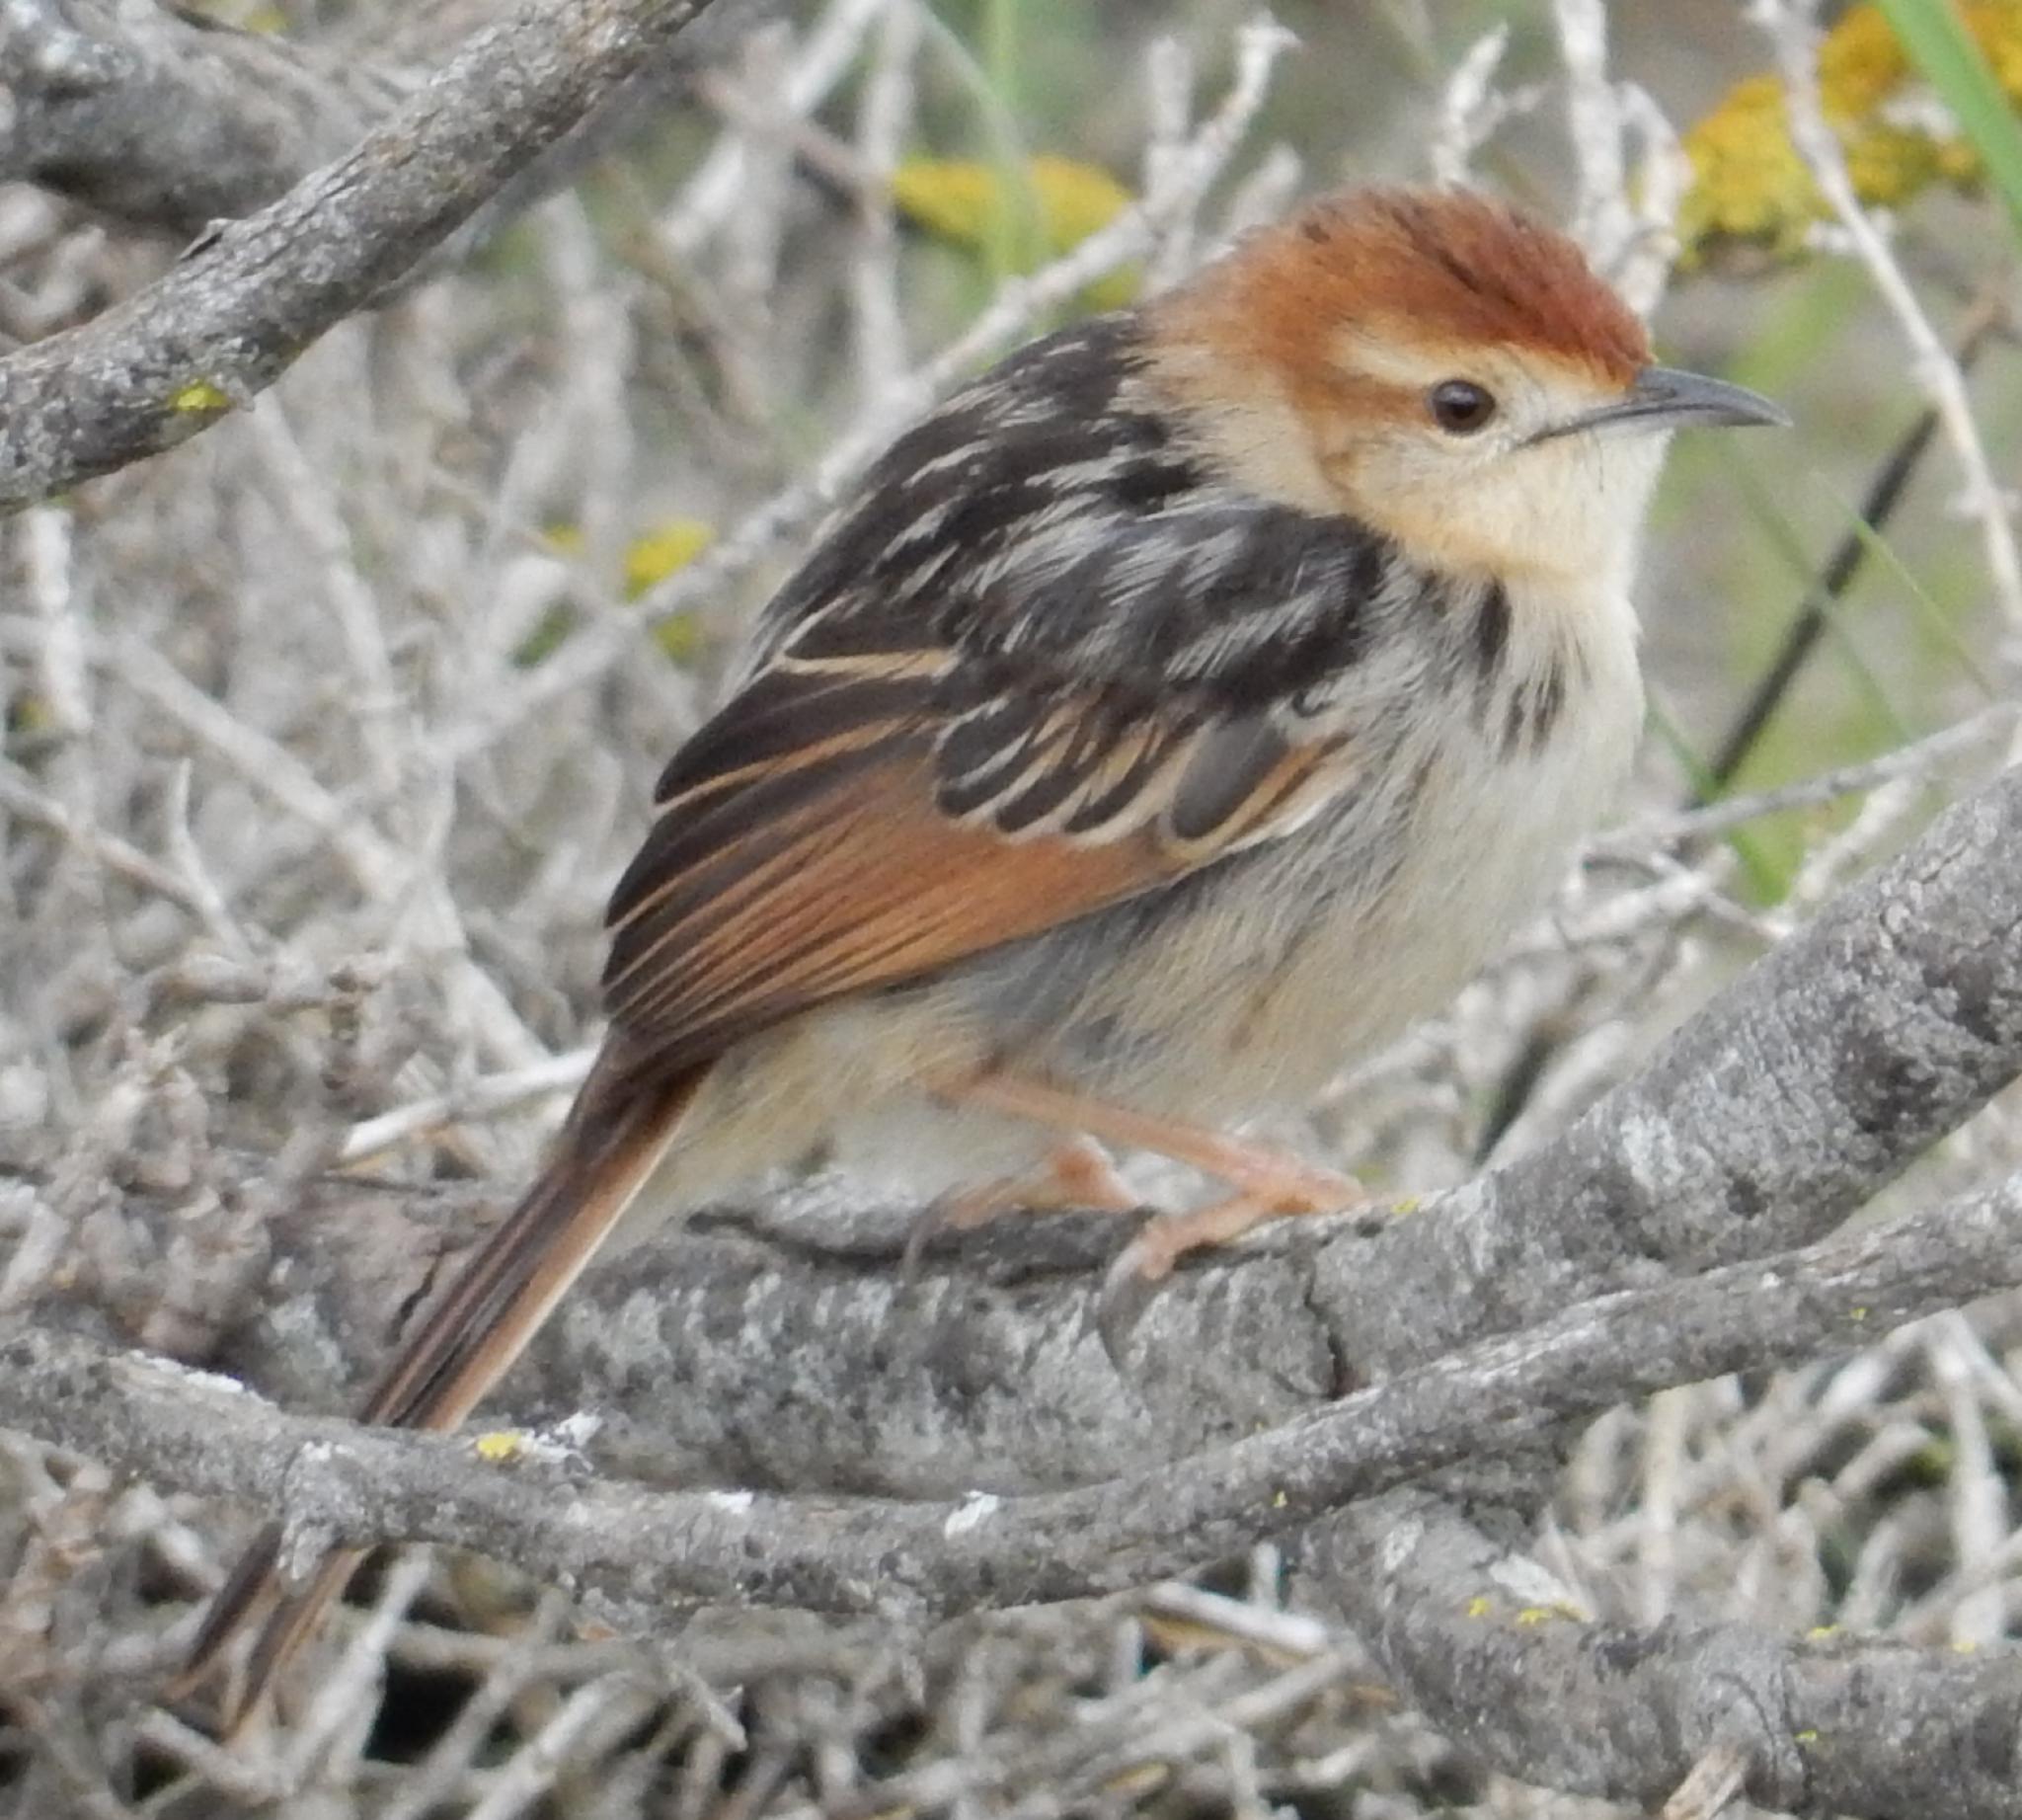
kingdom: Animalia
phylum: Chordata
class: Aves
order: Passeriformes
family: Cisticolidae
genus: Cisticola
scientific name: Cisticola tinniens
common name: Levaillant's cisticola
